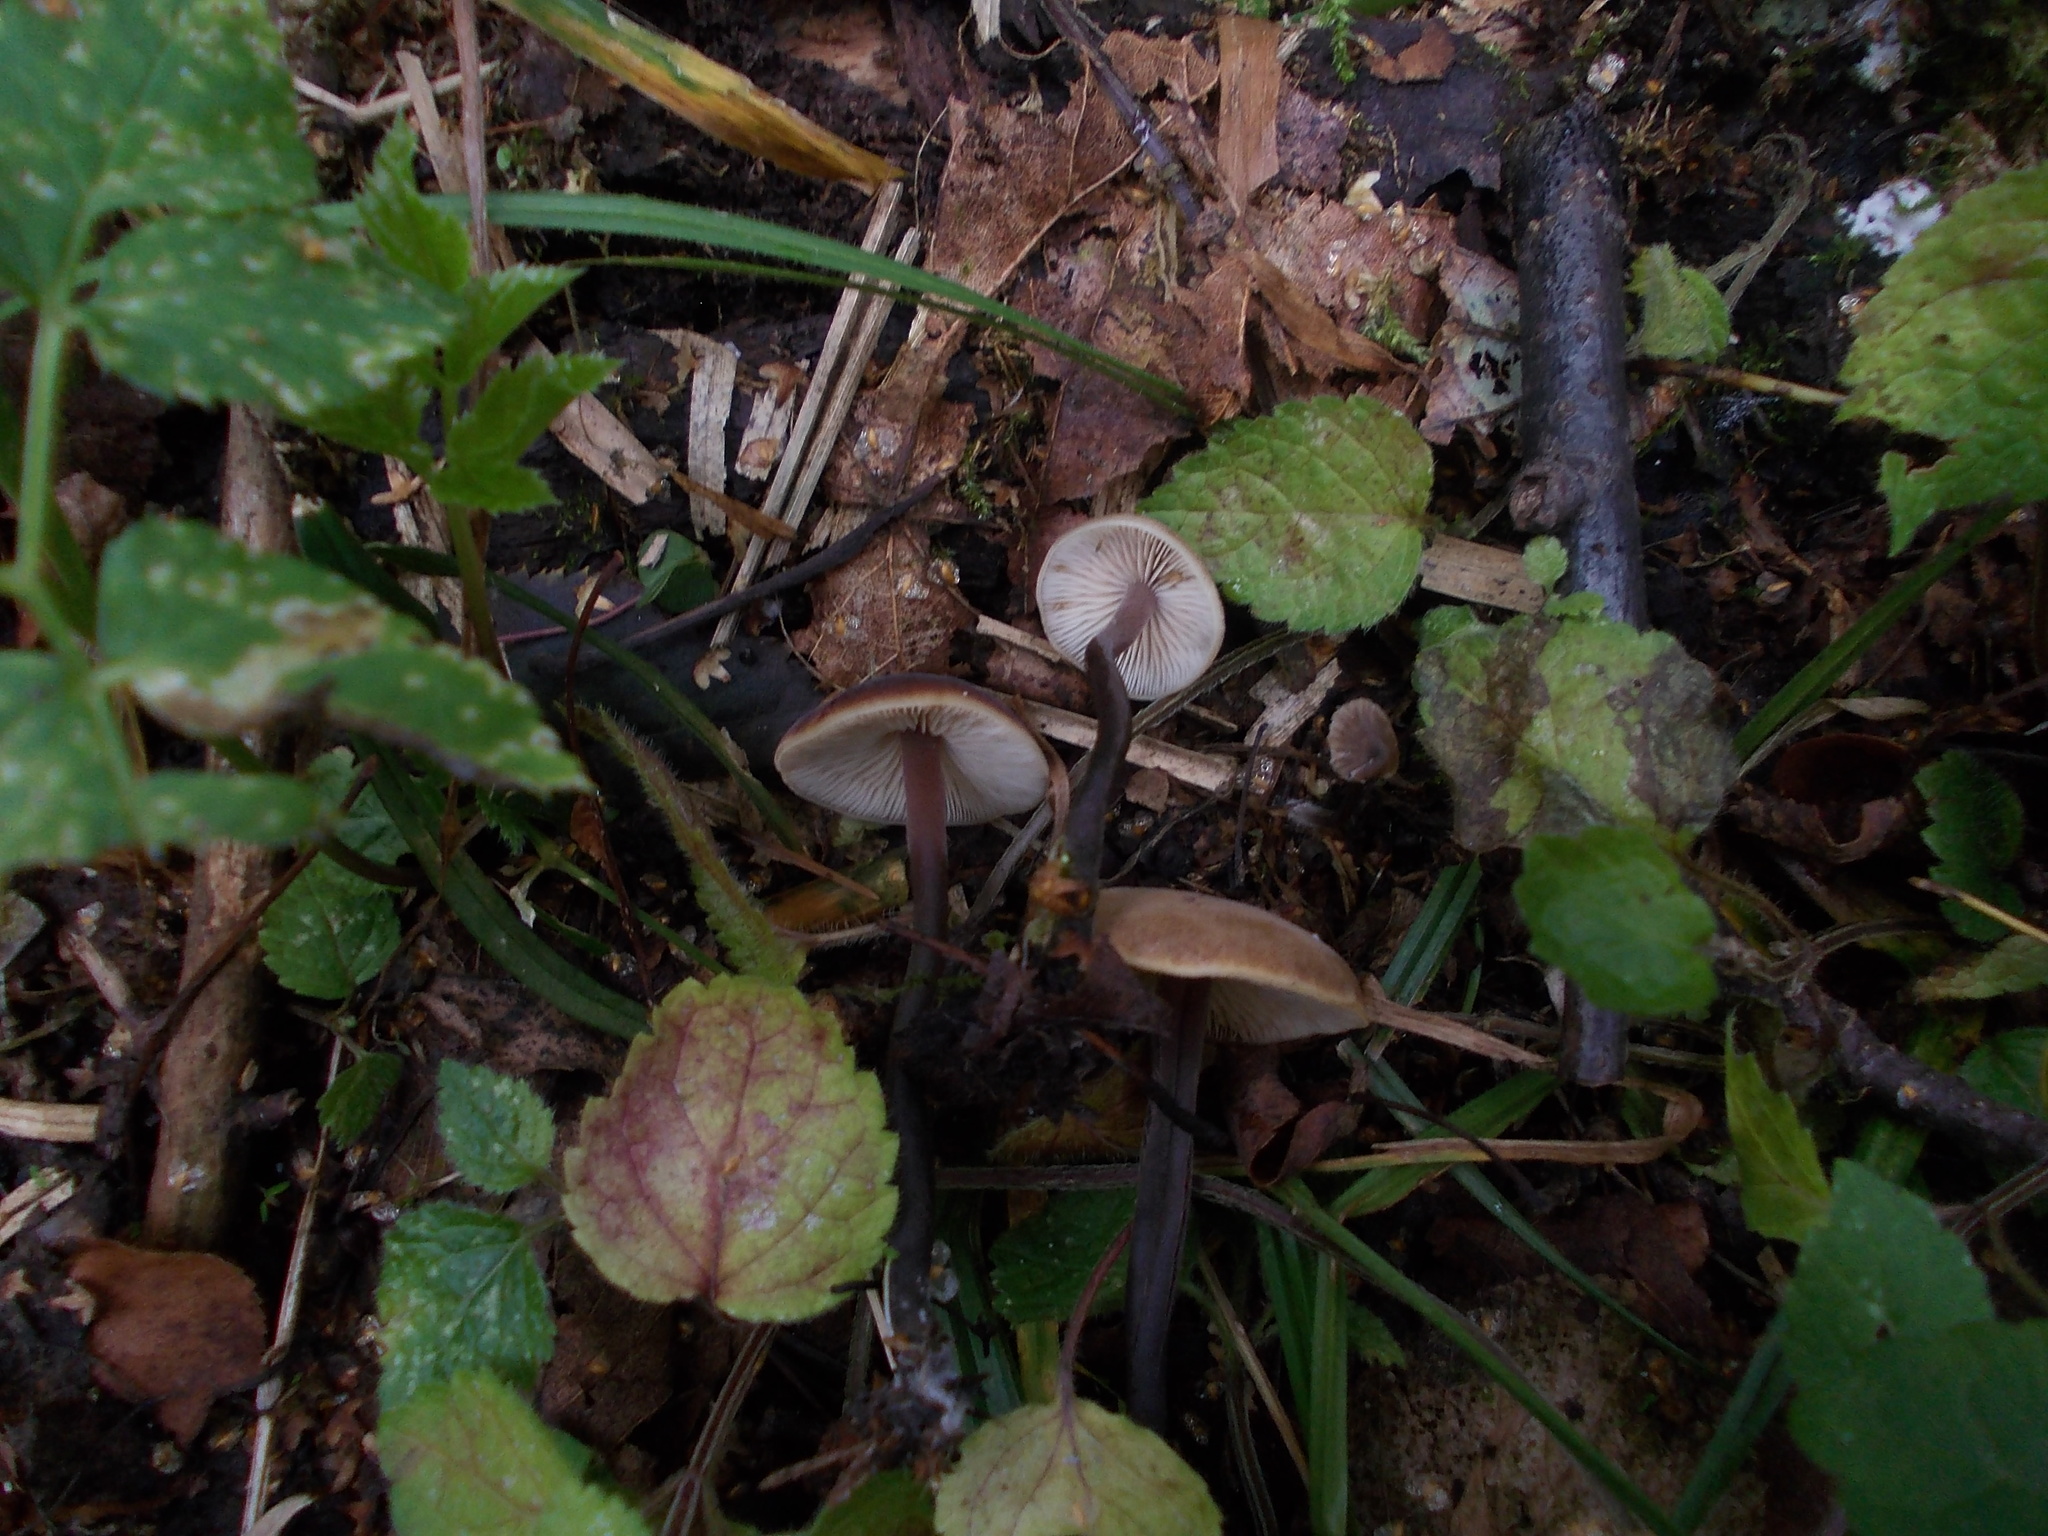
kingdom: Fungi
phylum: Basidiomycota
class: Agaricomycetes
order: Agaricales
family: Macrocystidiaceae
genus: Macrocystidia
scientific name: Macrocystidia cucumis
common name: Cucumber cap
